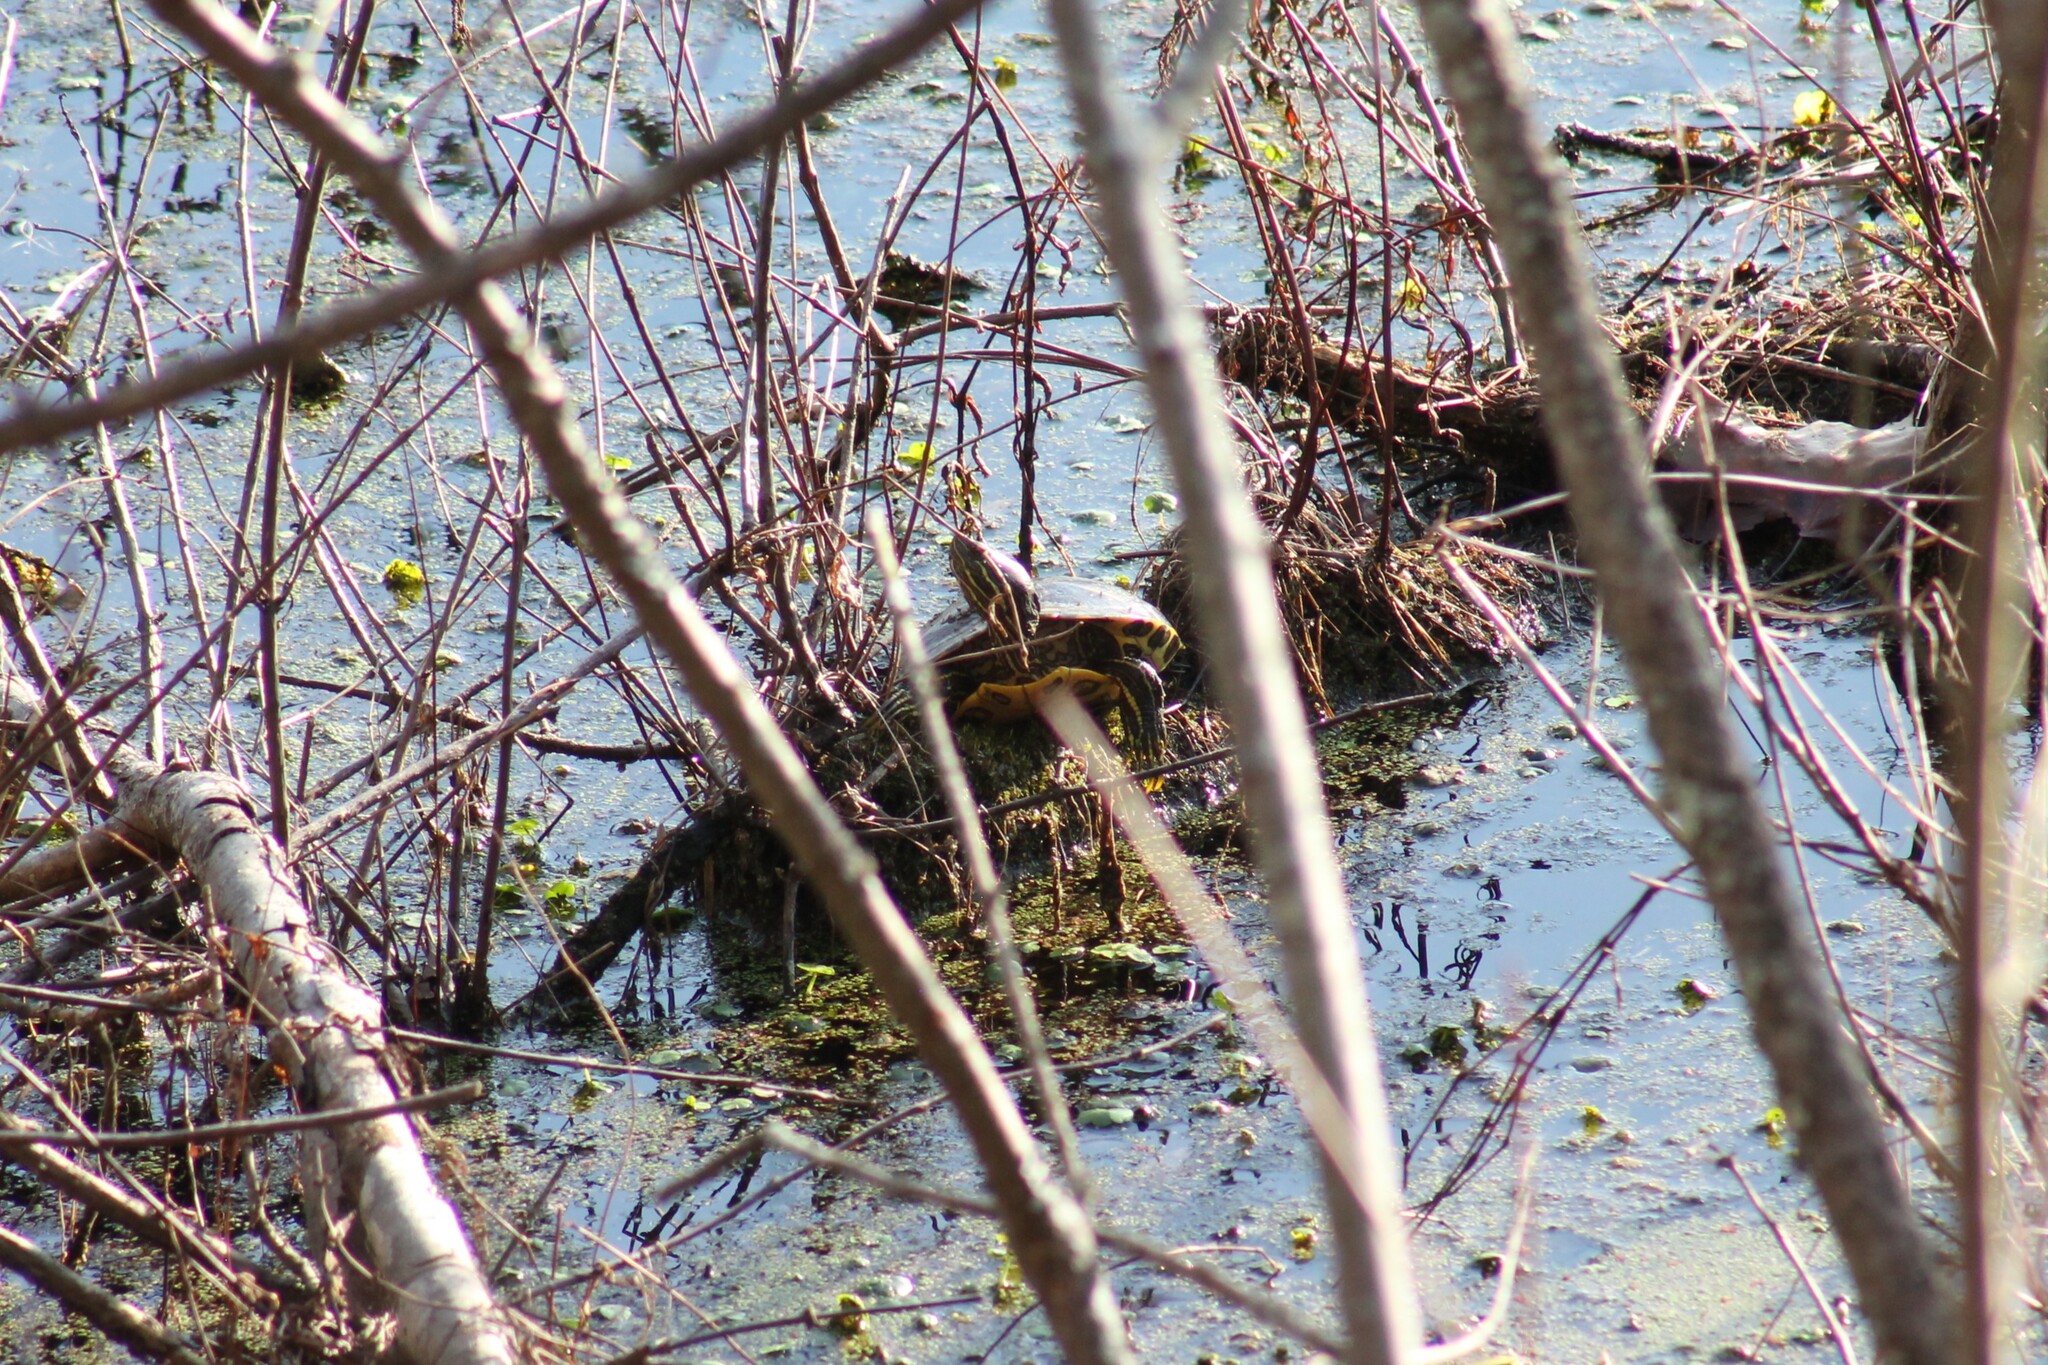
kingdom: Animalia
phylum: Chordata
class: Testudines
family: Emydidae
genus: Trachemys
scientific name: Trachemys scripta
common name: Slider
